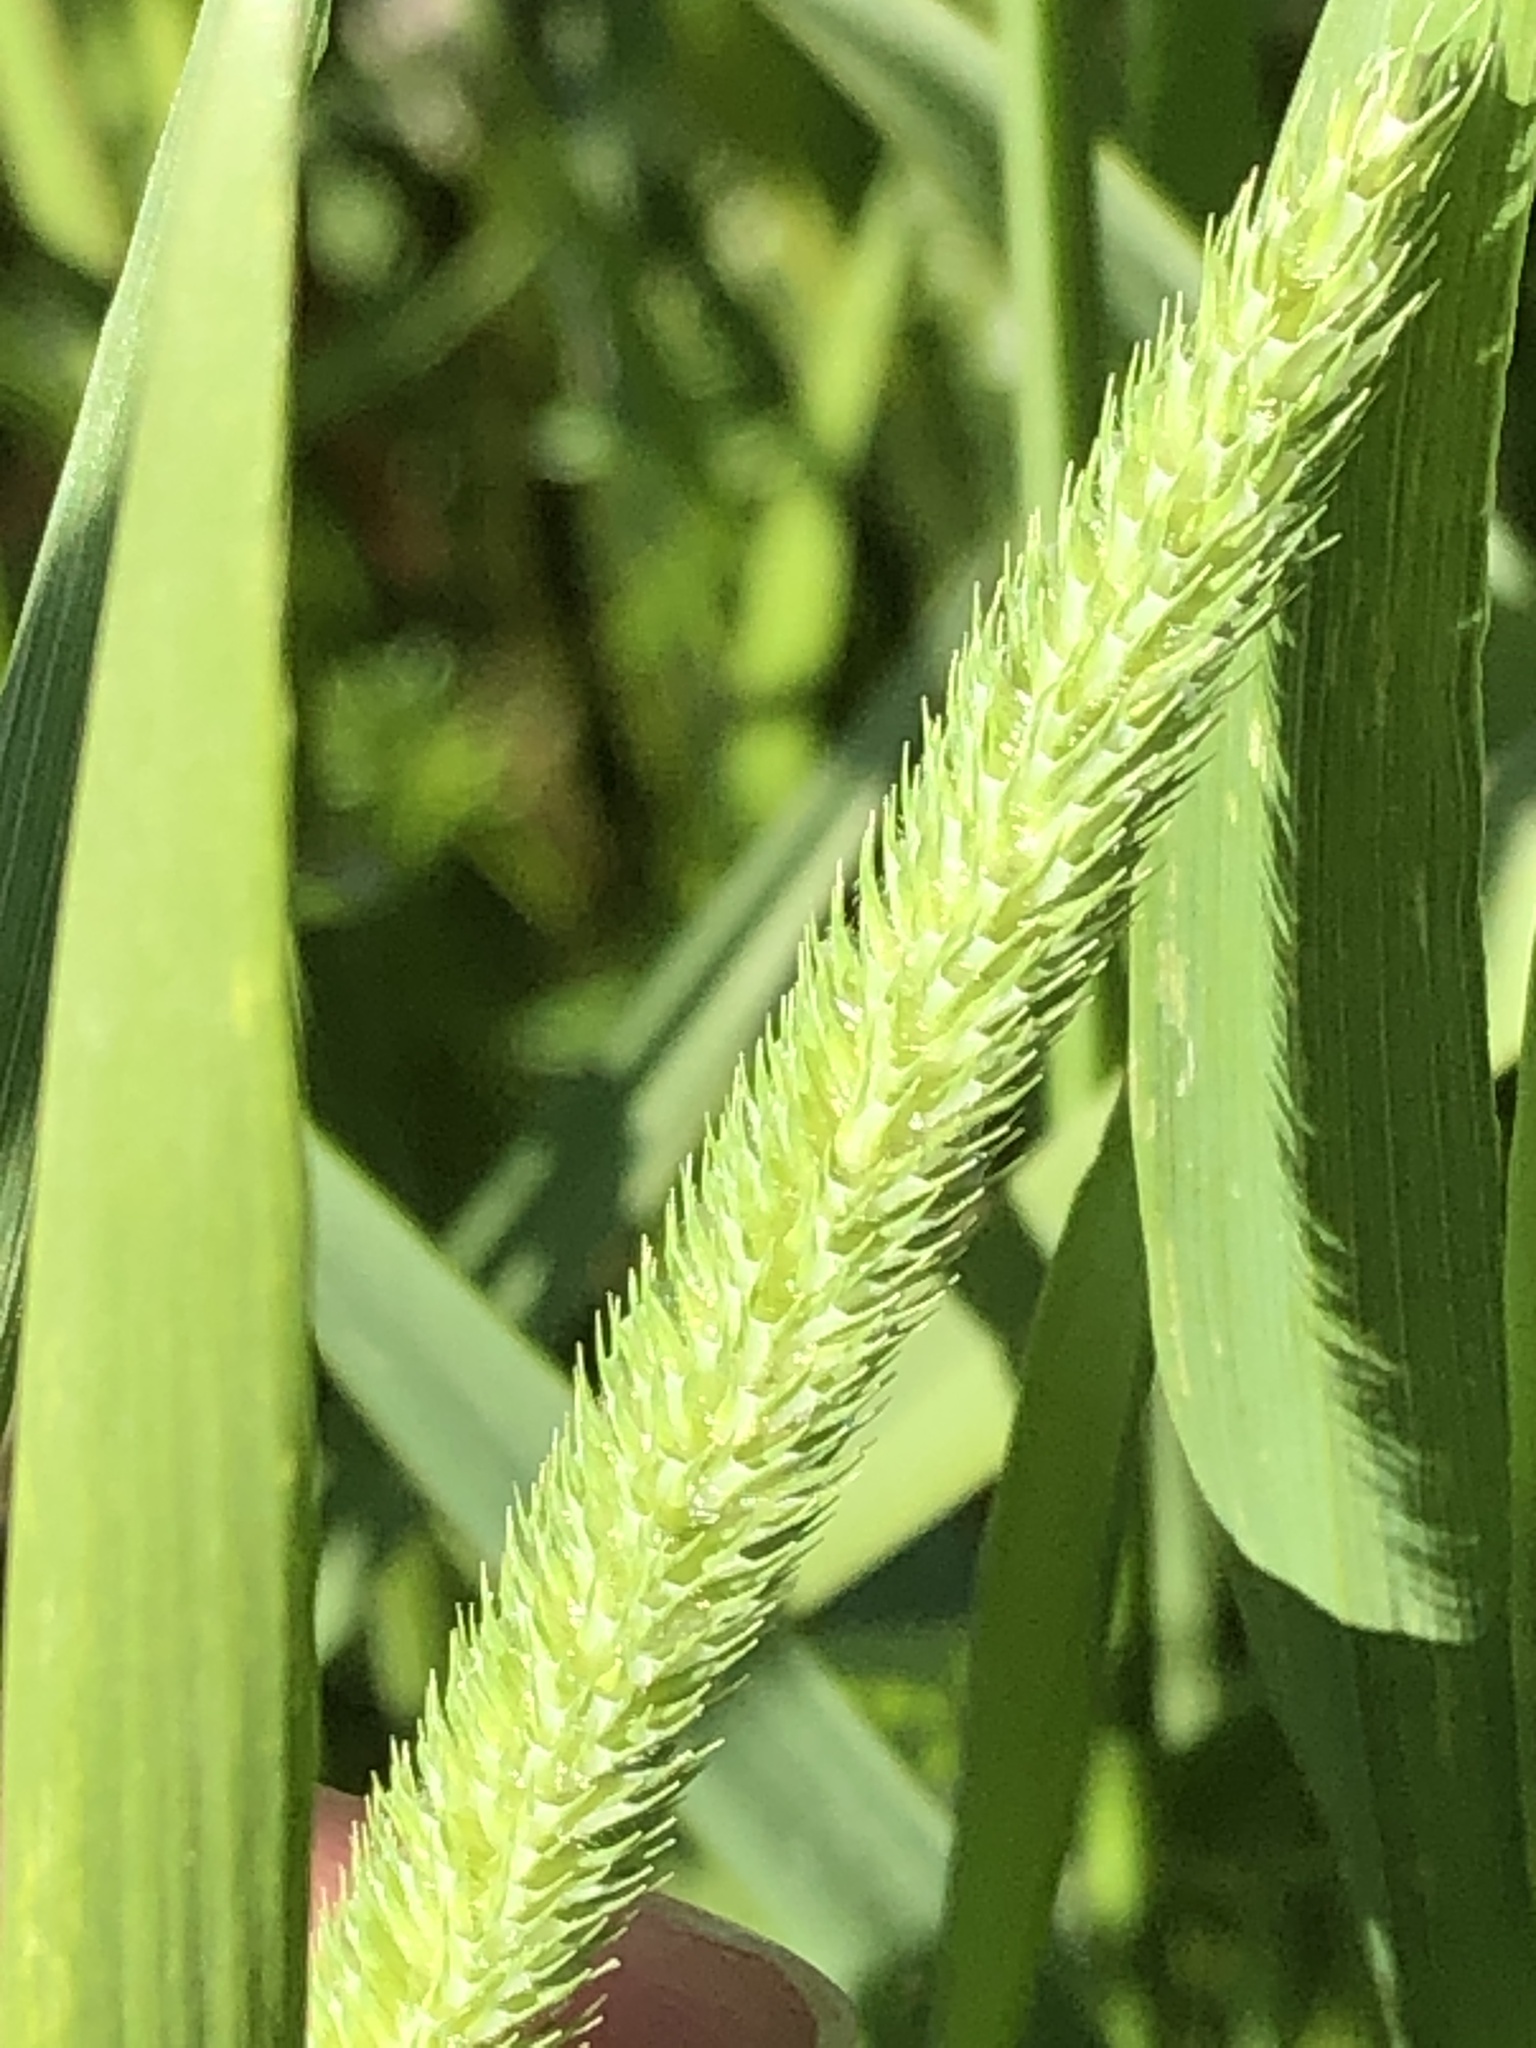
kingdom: Plantae
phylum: Tracheophyta
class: Liliopsida
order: Poales
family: Poaceae
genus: Phleum
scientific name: Phleum pratense
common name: Timothy grass
